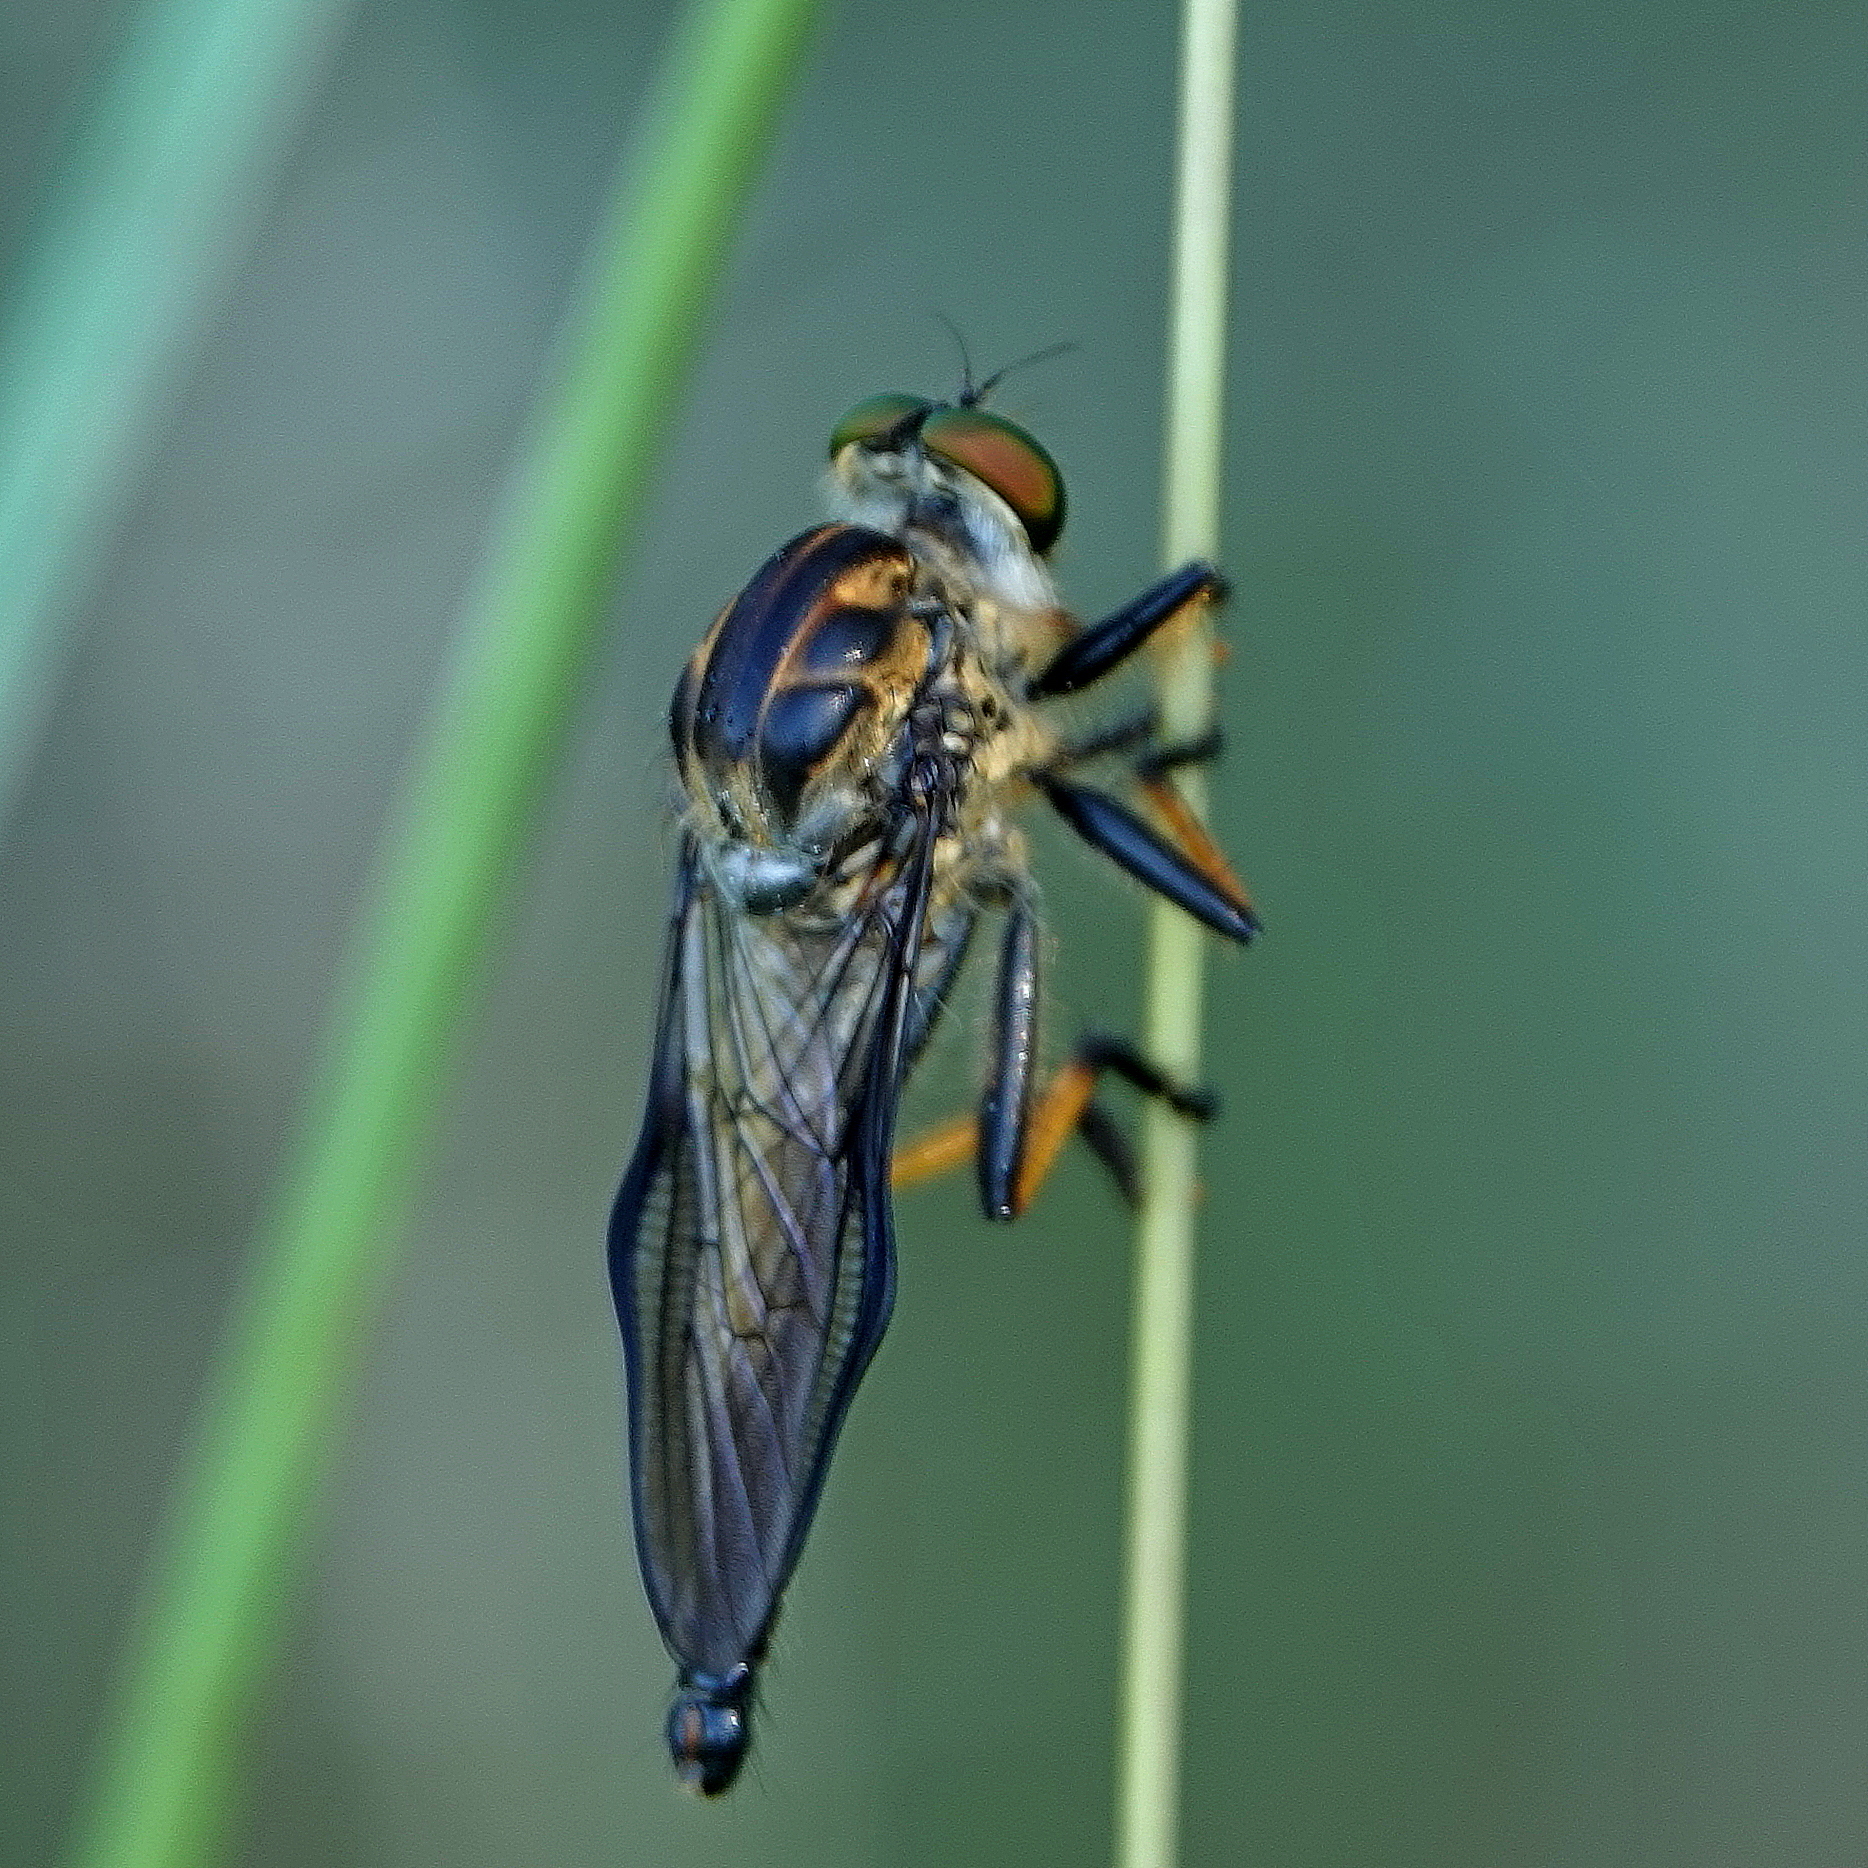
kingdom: Animalia
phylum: Arthropoda
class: Insecta
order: Diptera
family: Asilidae
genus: Ommatius
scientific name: Ommatius coeraebus
